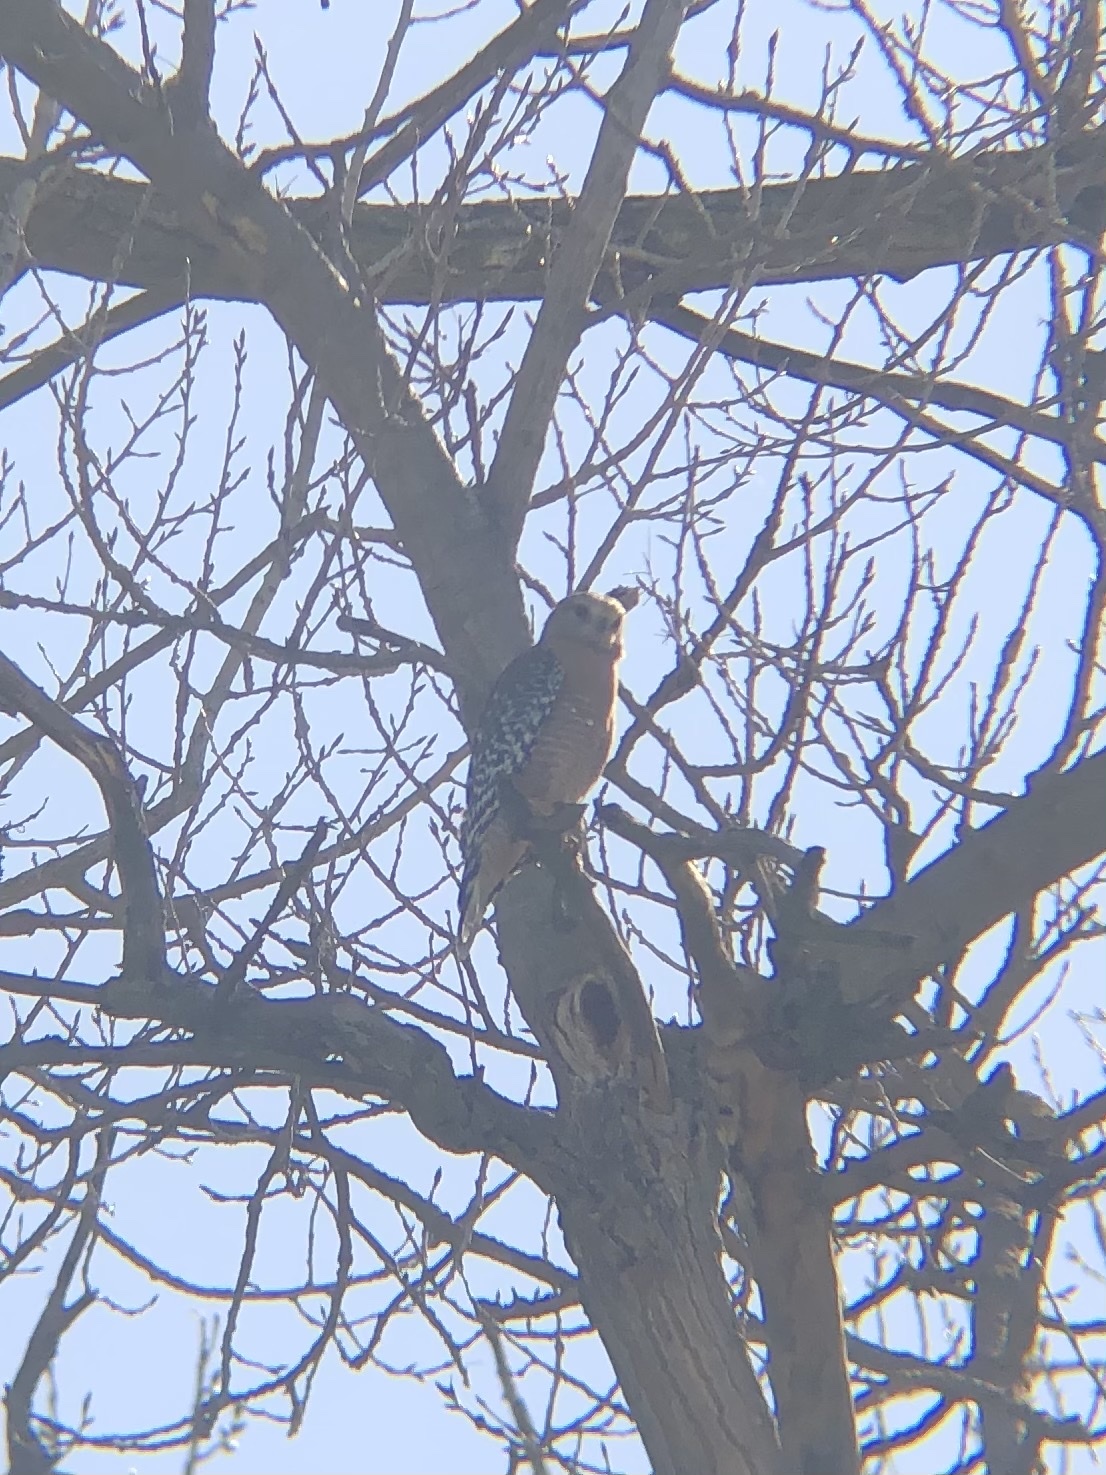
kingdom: Animalia
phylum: Chordata
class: Aves
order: Accipitriformes
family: Accipitridae
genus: Buteo
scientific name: Buteo lineatus
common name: Red-shouldered hawk
